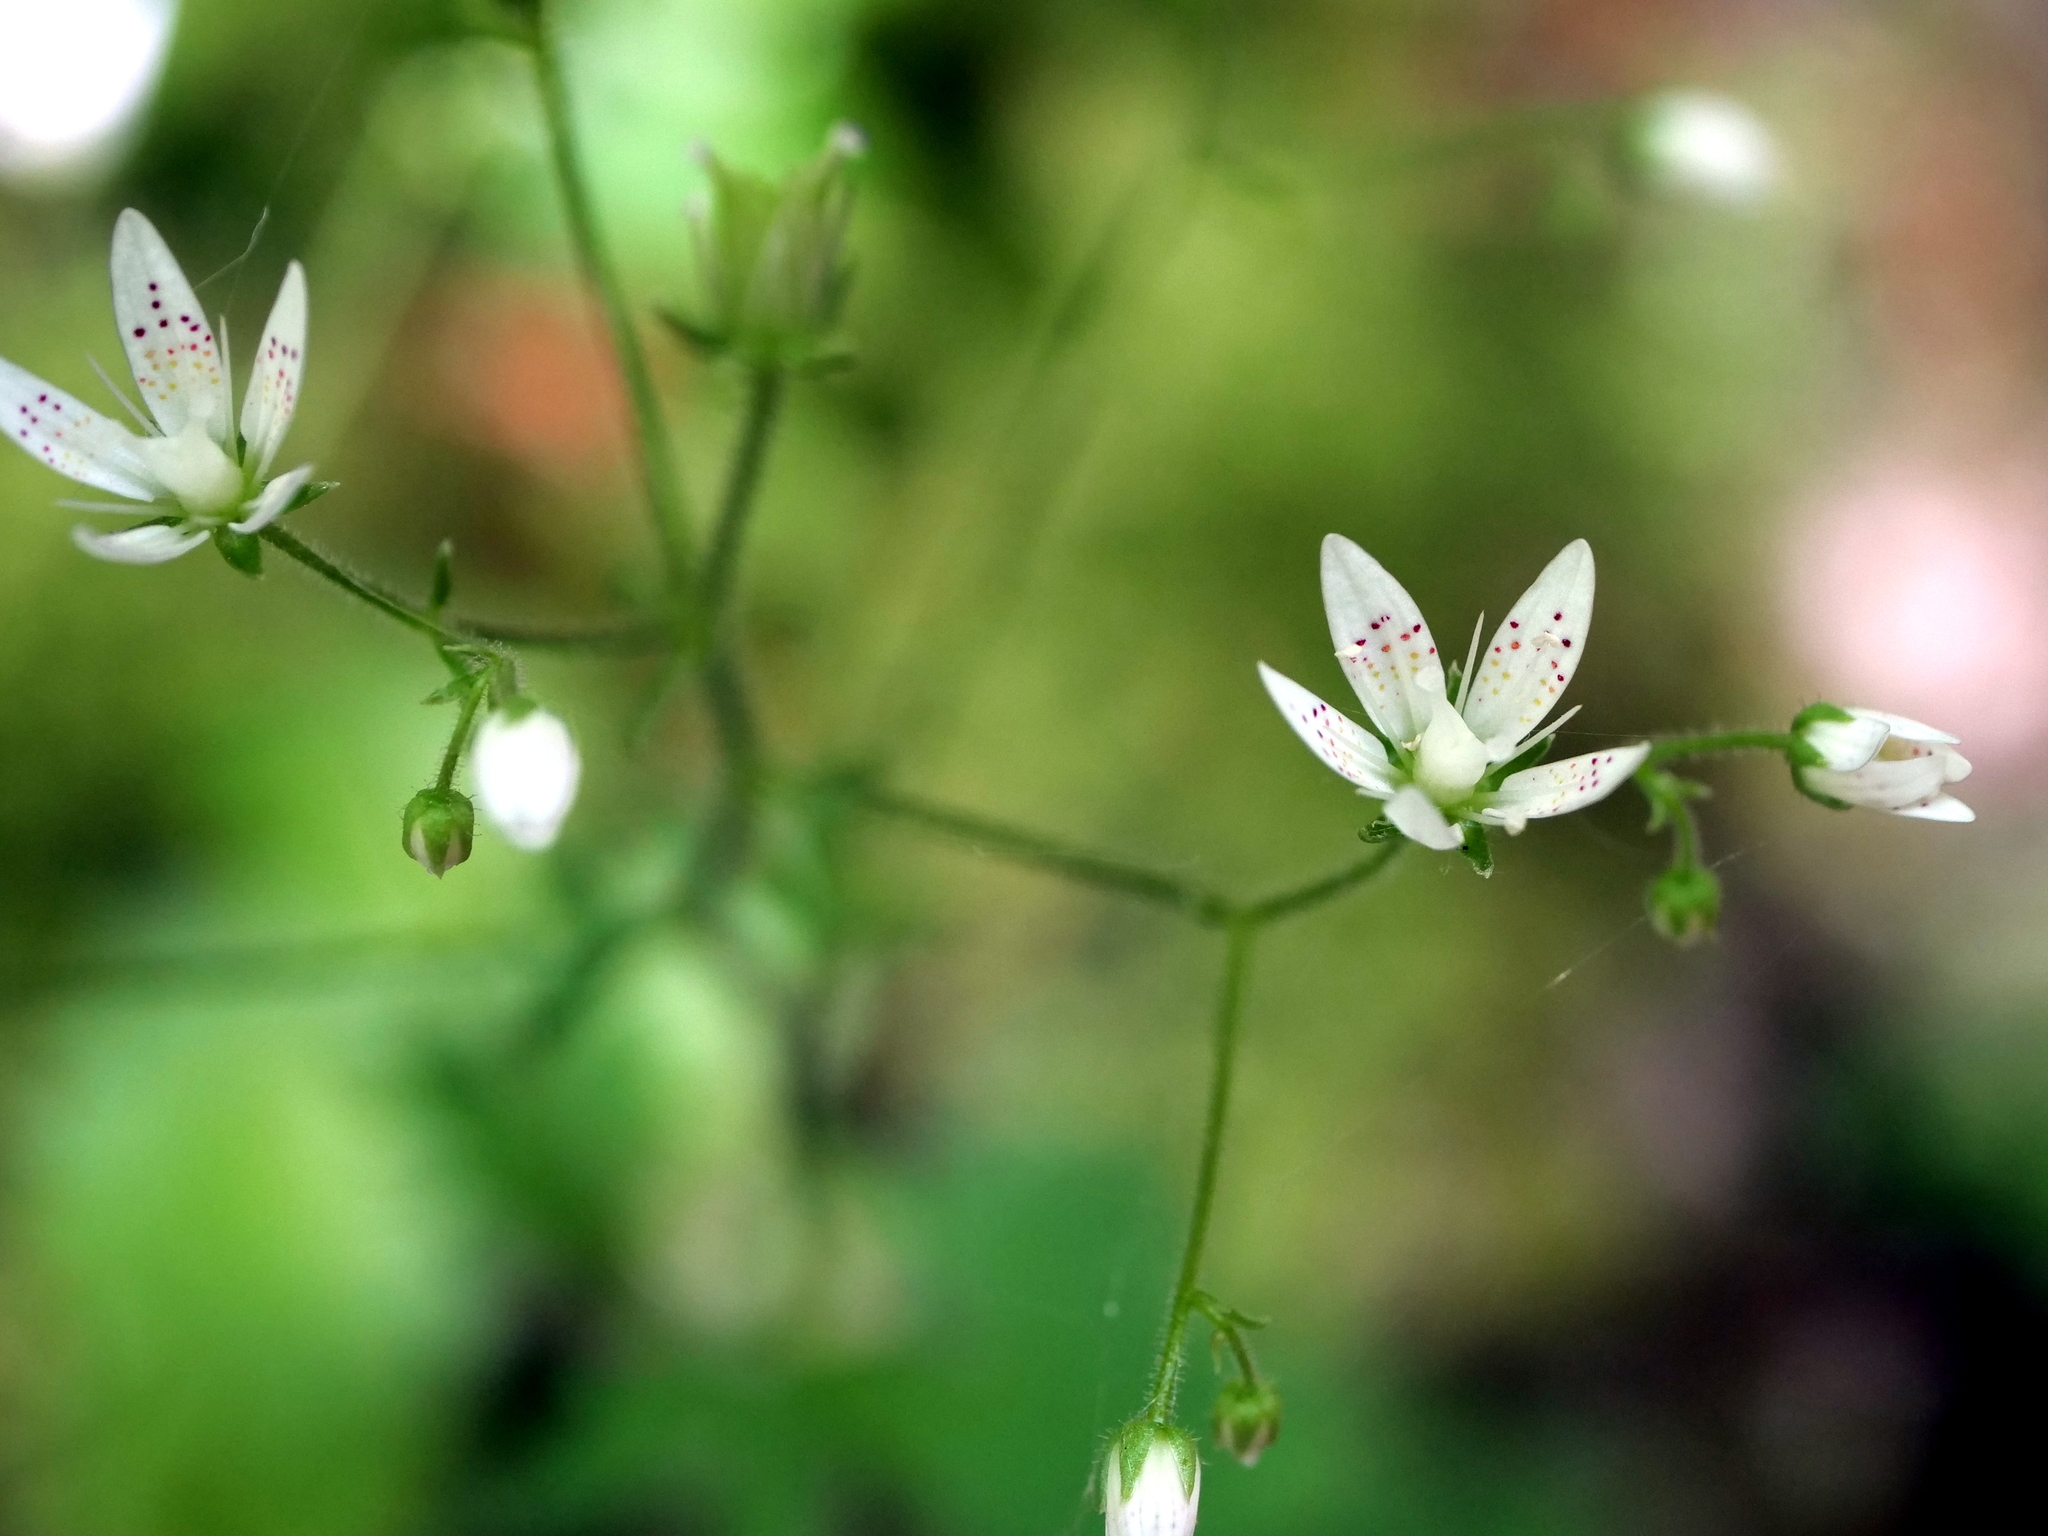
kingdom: Plantae
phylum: Tracheophyta
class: Magnoliopsida
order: Saxifragales
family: Saxifragaceae
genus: Saxifraga
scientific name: Saxifraga rotundifolia
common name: Round-leaved saxifrage
